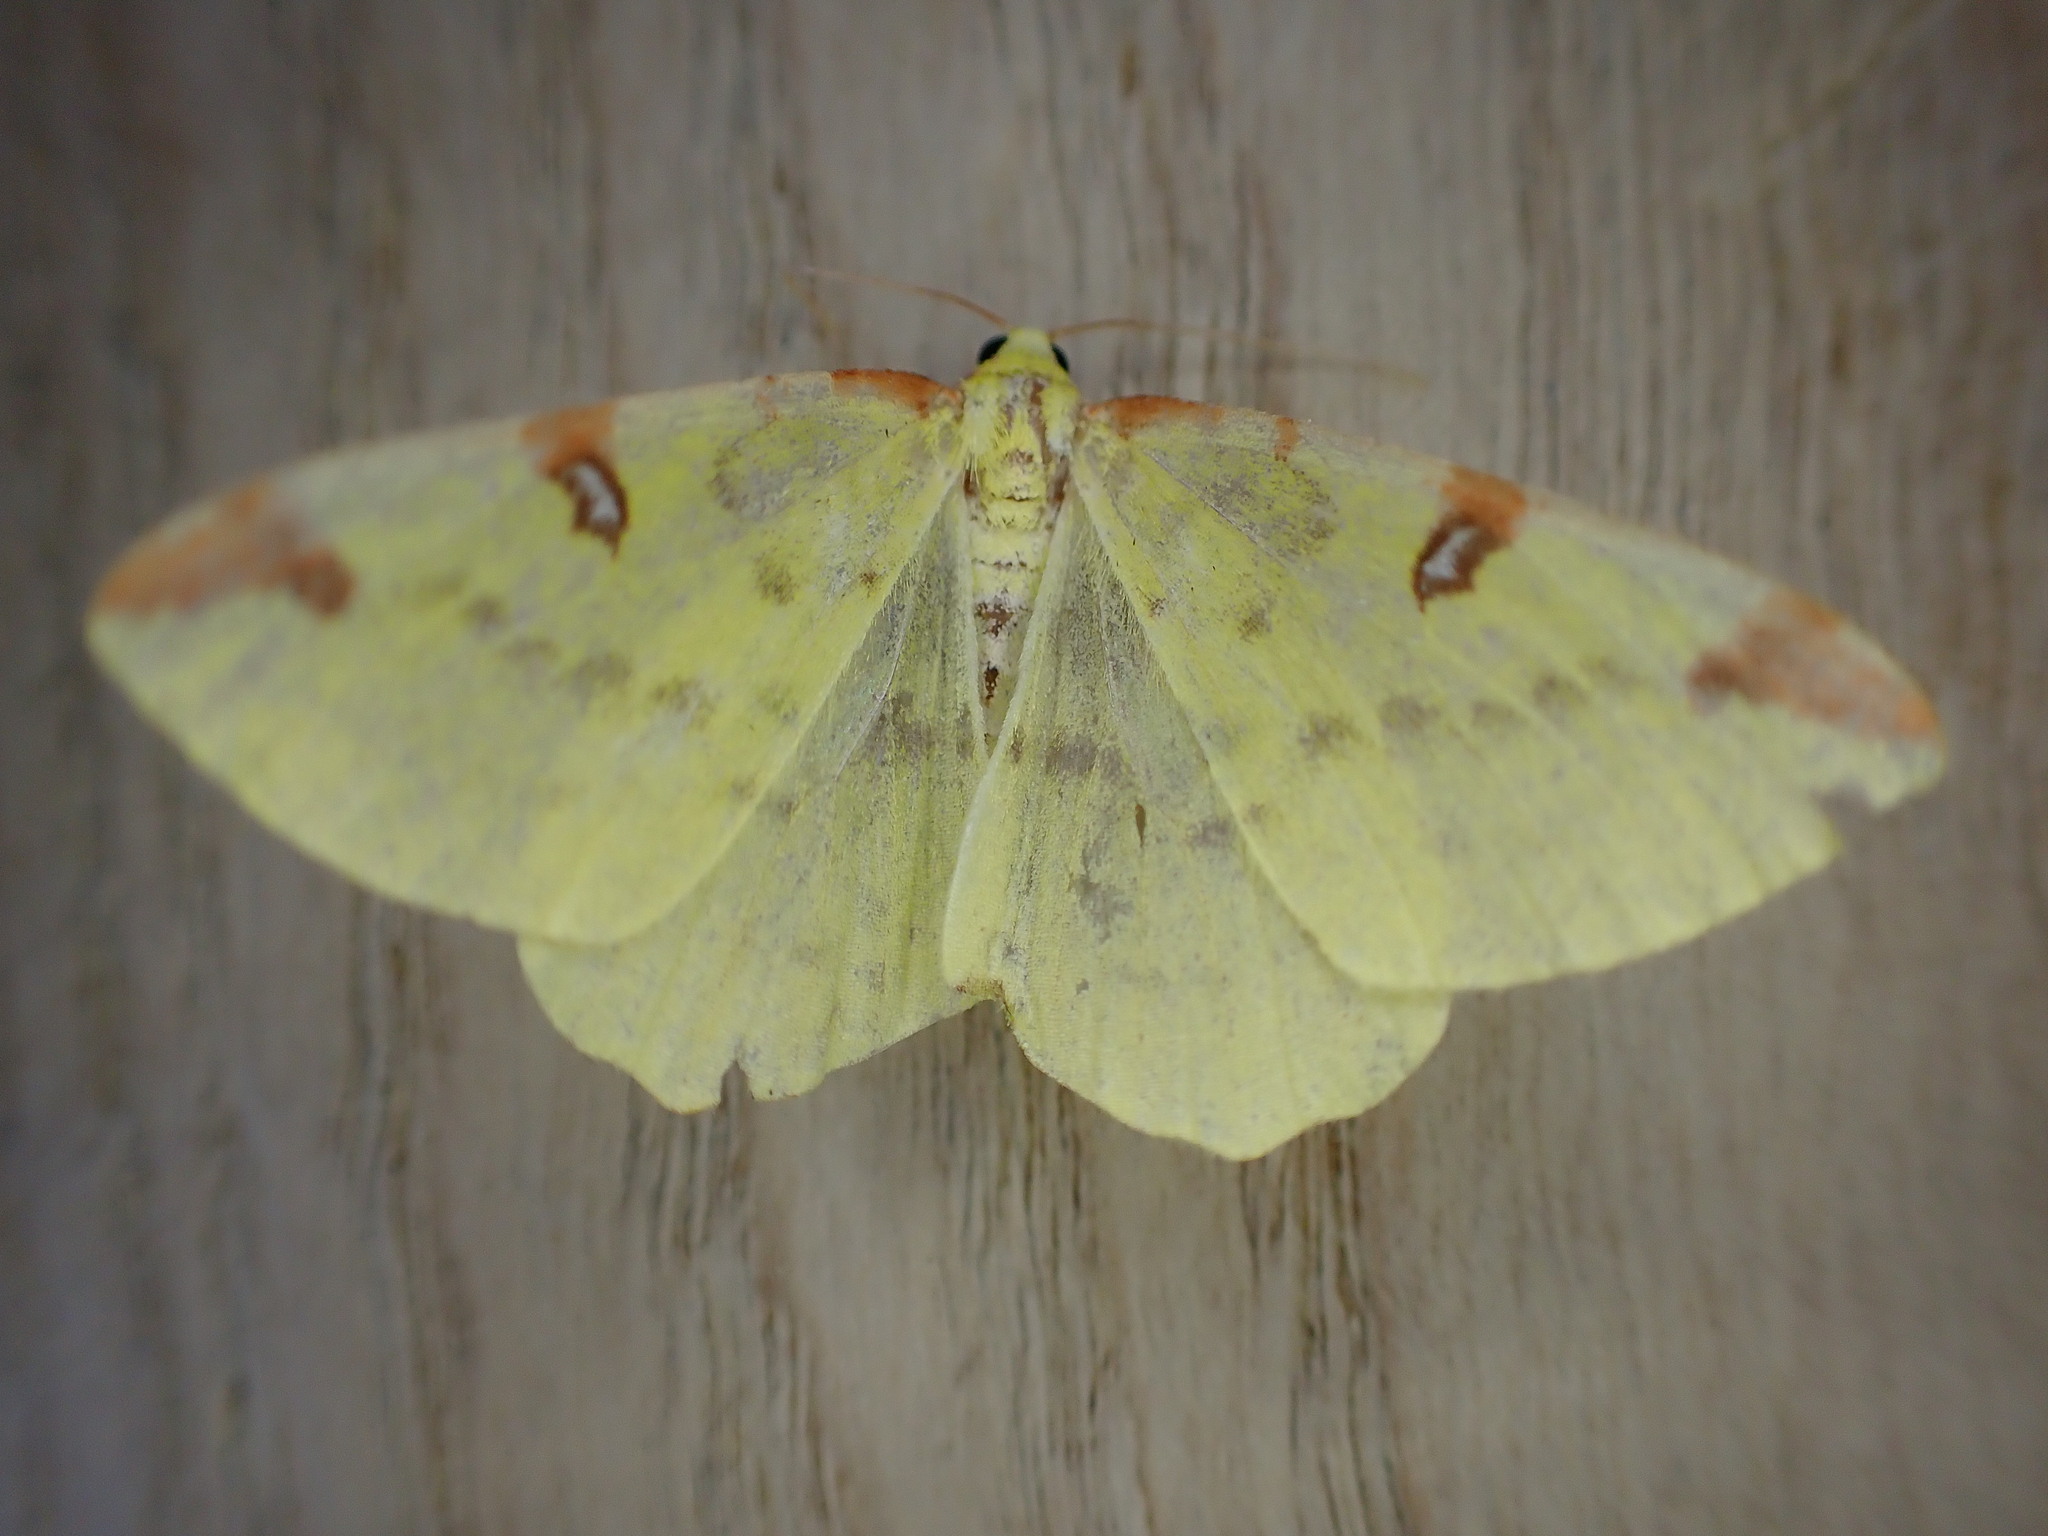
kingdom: Animalia
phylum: Arthropoda
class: Insecta
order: Lepidoptera
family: Geometridae
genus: Opisthograptis
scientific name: Opisthograptis luteolata
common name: Brimstone moth
